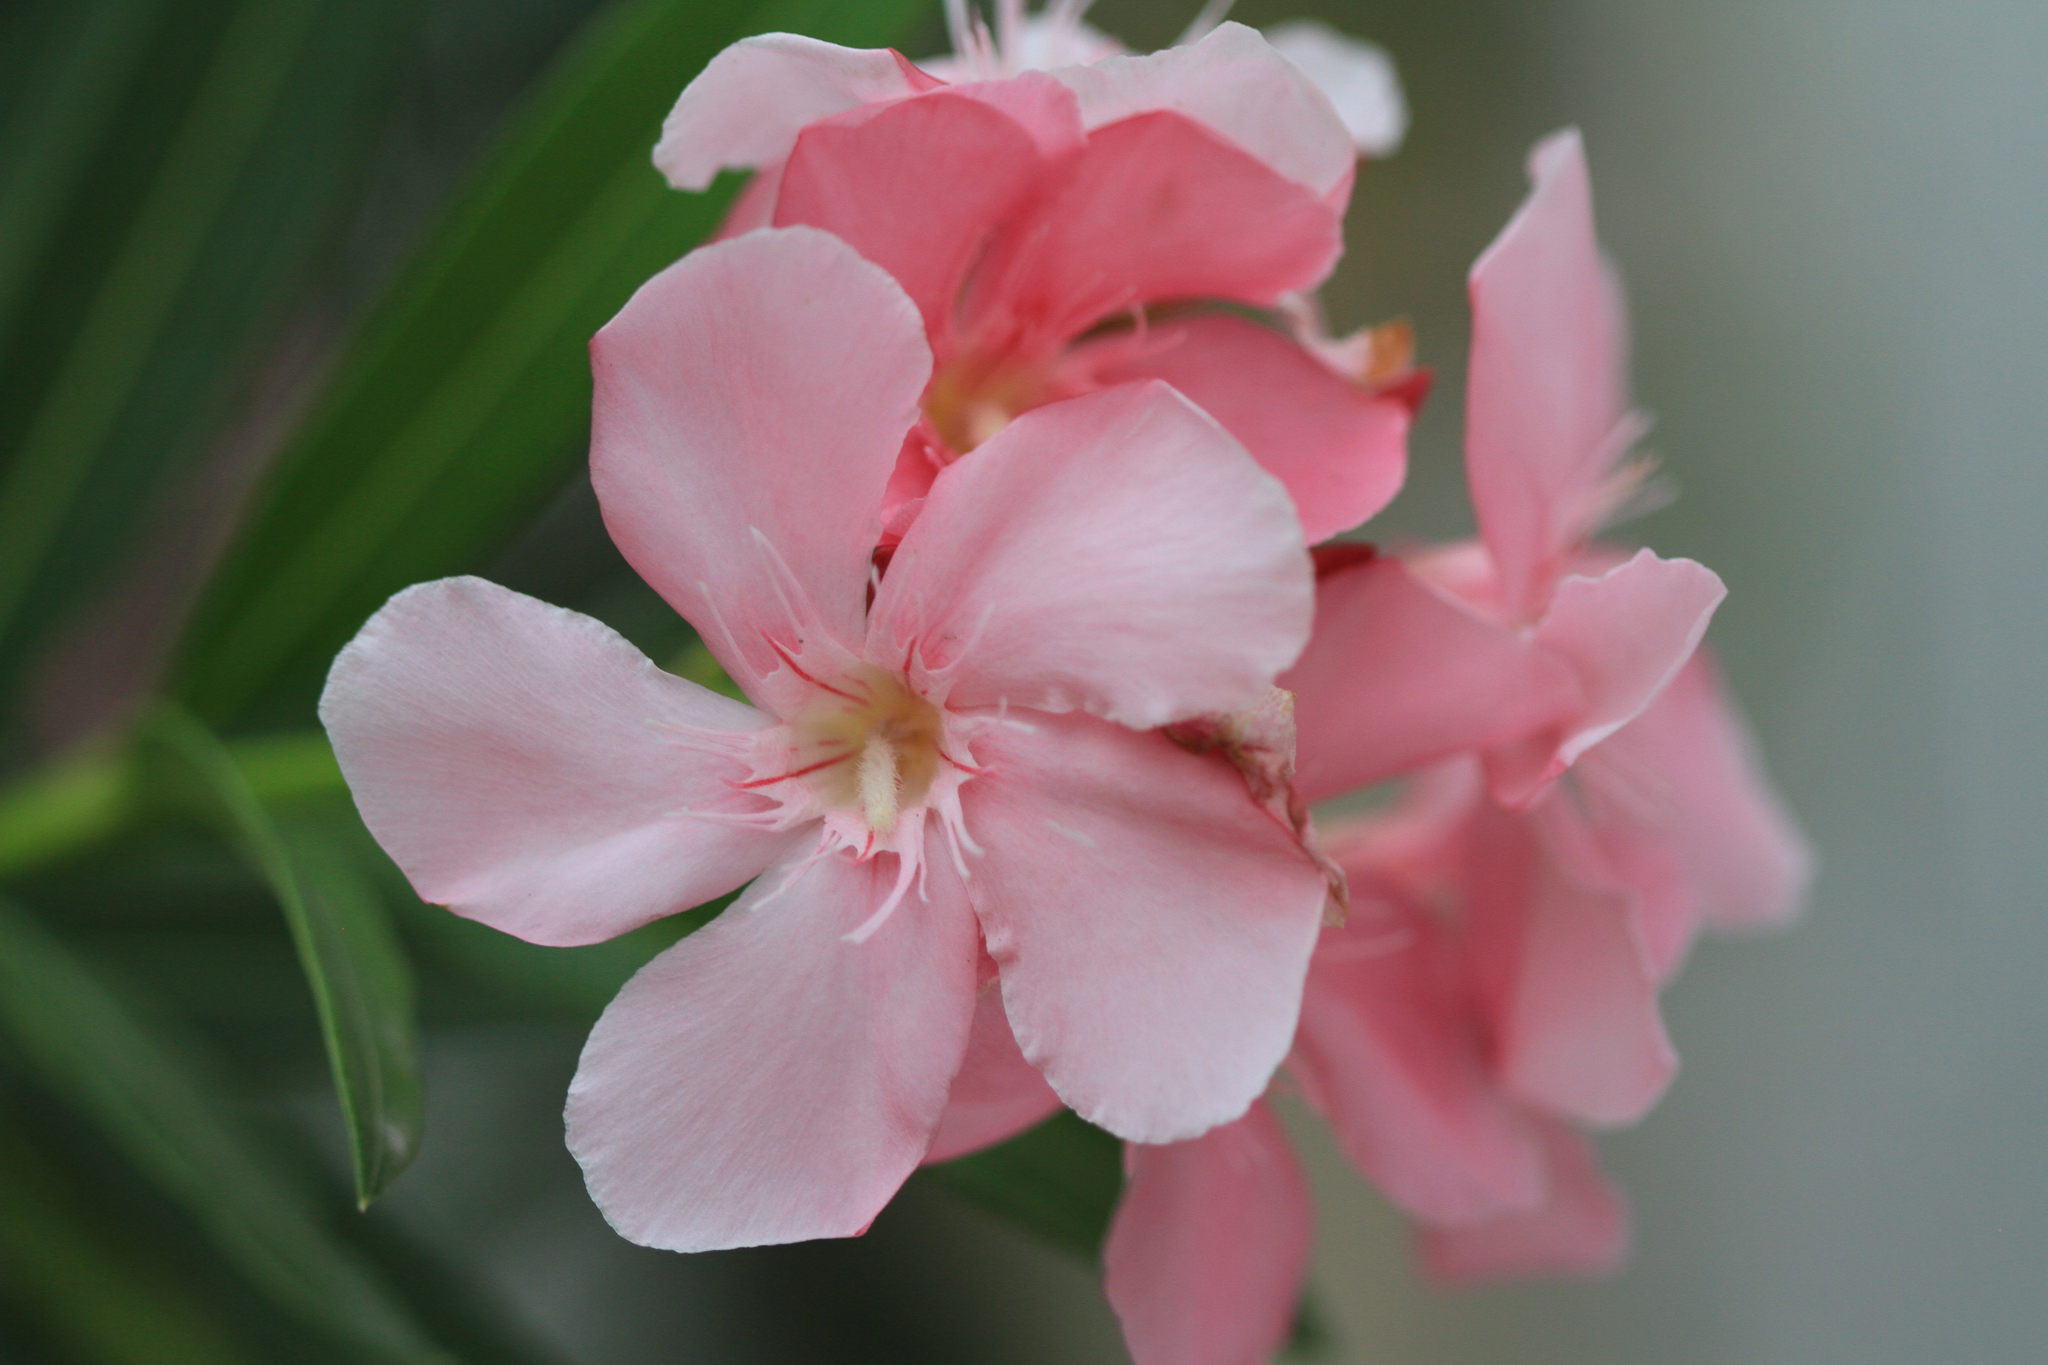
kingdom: Plantae
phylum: Tracheophyta
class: Magnoliopsida
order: Gentianales
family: Apocynaceae
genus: Nerium
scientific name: Nerium oleander
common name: Oleander
